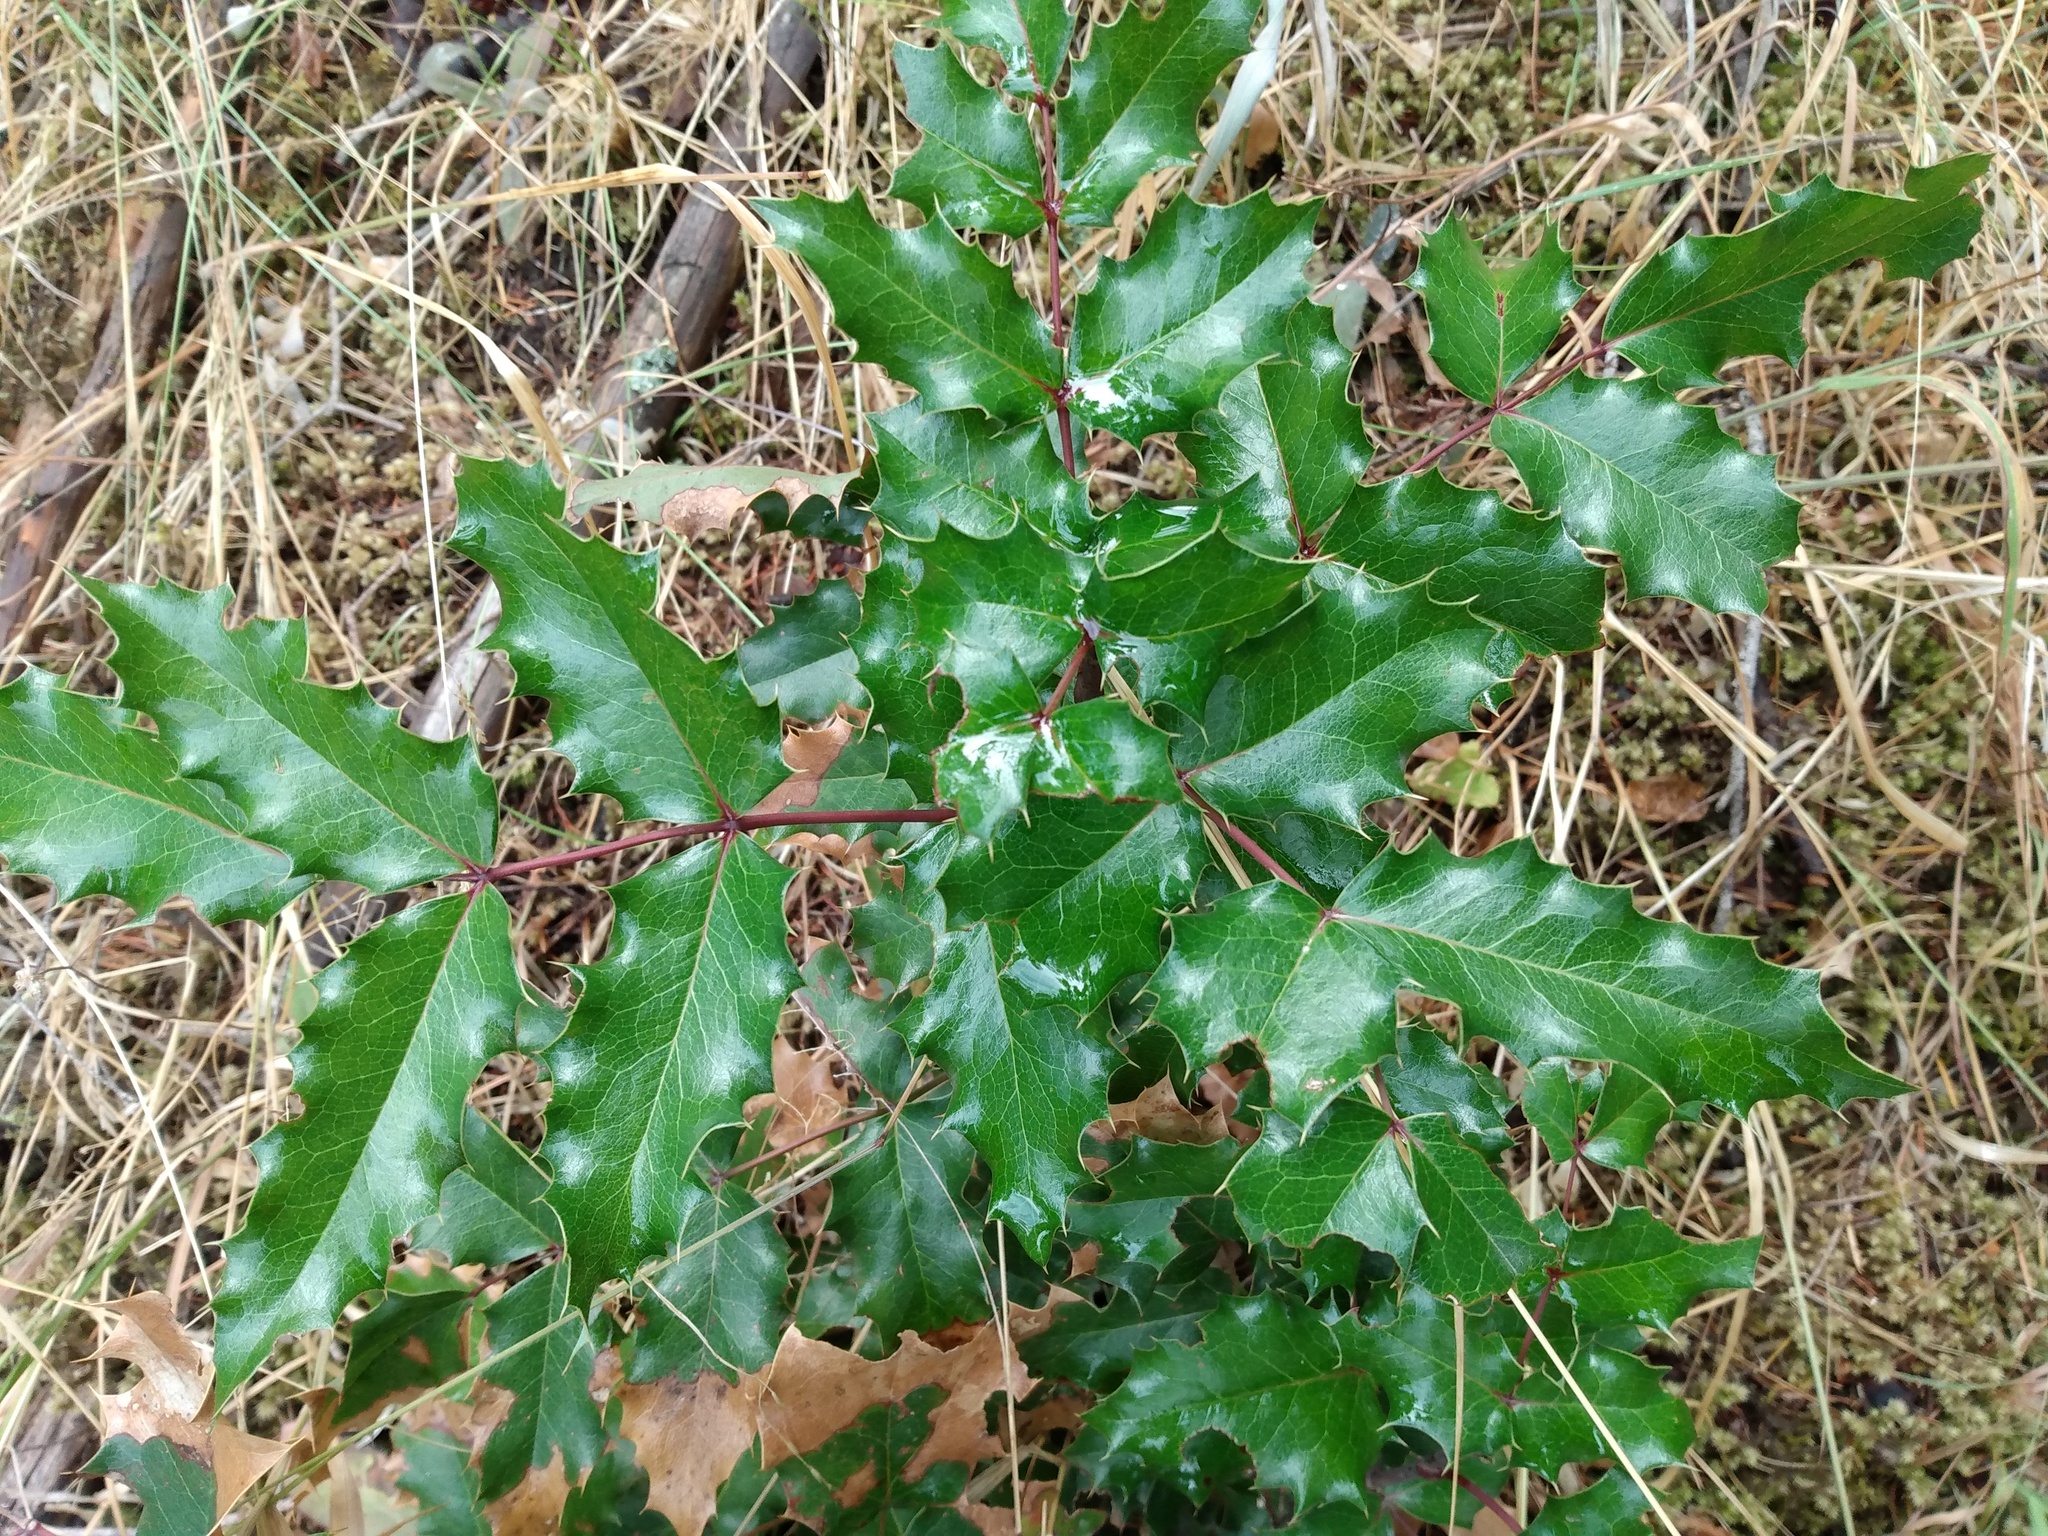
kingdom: Plantae
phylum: Tracheophyta
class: Magnoliopsida
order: Ranunculales
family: Berberidaceae
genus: Mahonia
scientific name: Mahonia aquifolium
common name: Oregon-grape
